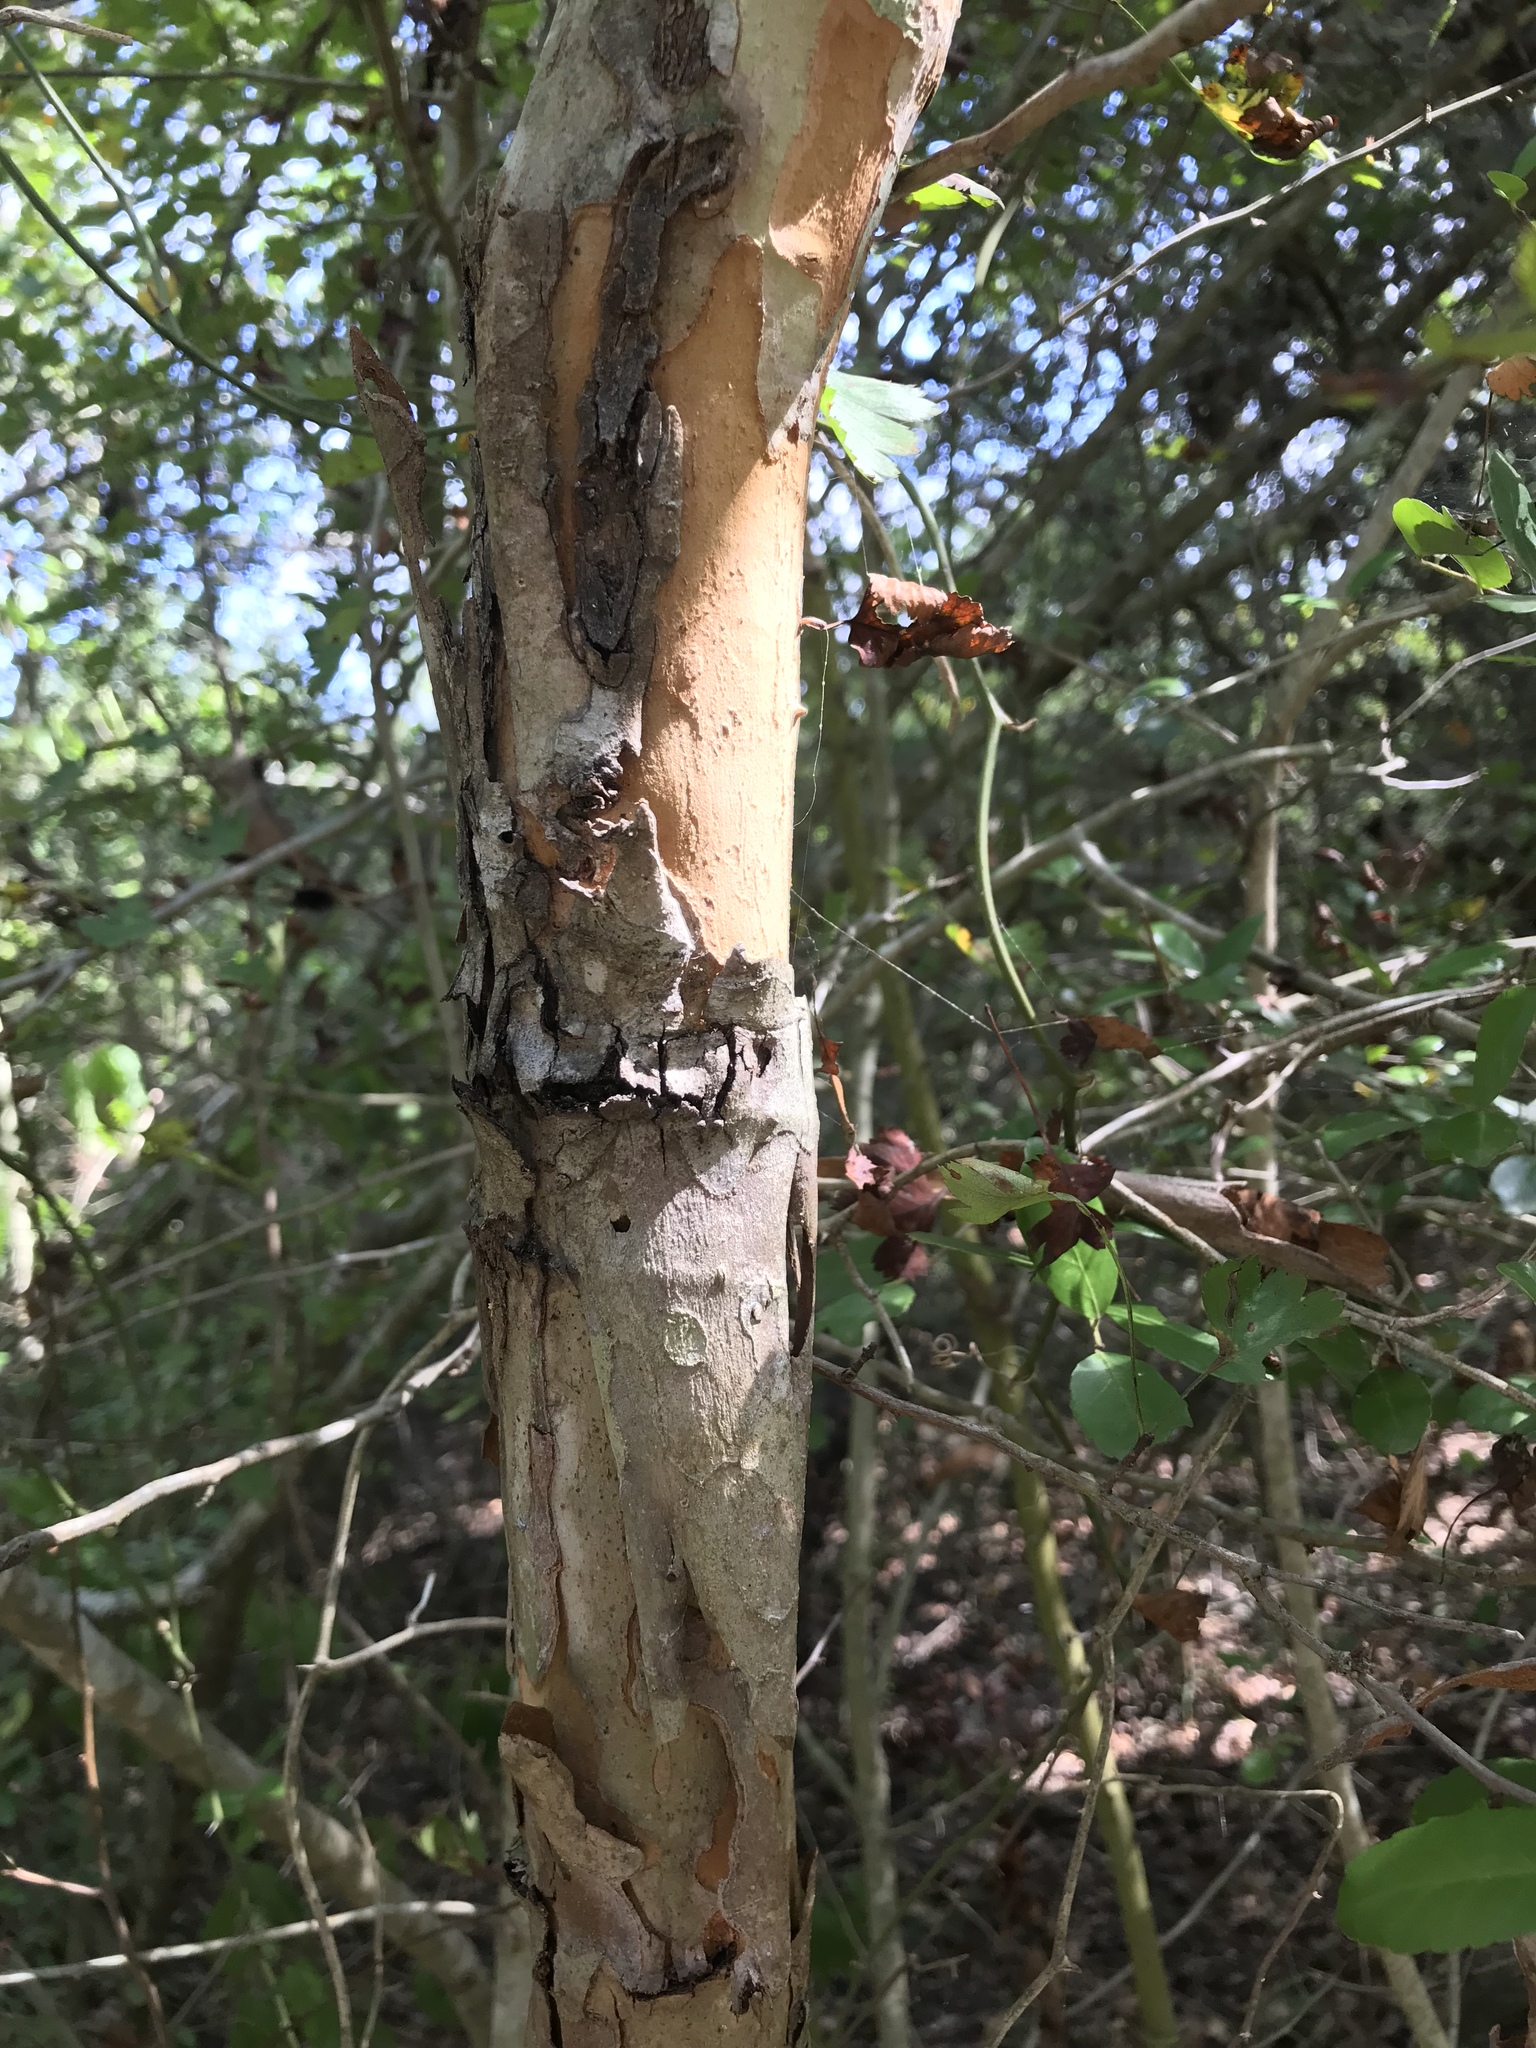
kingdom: Plantae
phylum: Tracheophyta
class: Magnoliopsida
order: Rosales
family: Rosaceae
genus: Crataegus
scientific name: Crataegus marshallii
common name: Parsley-hawthorn
